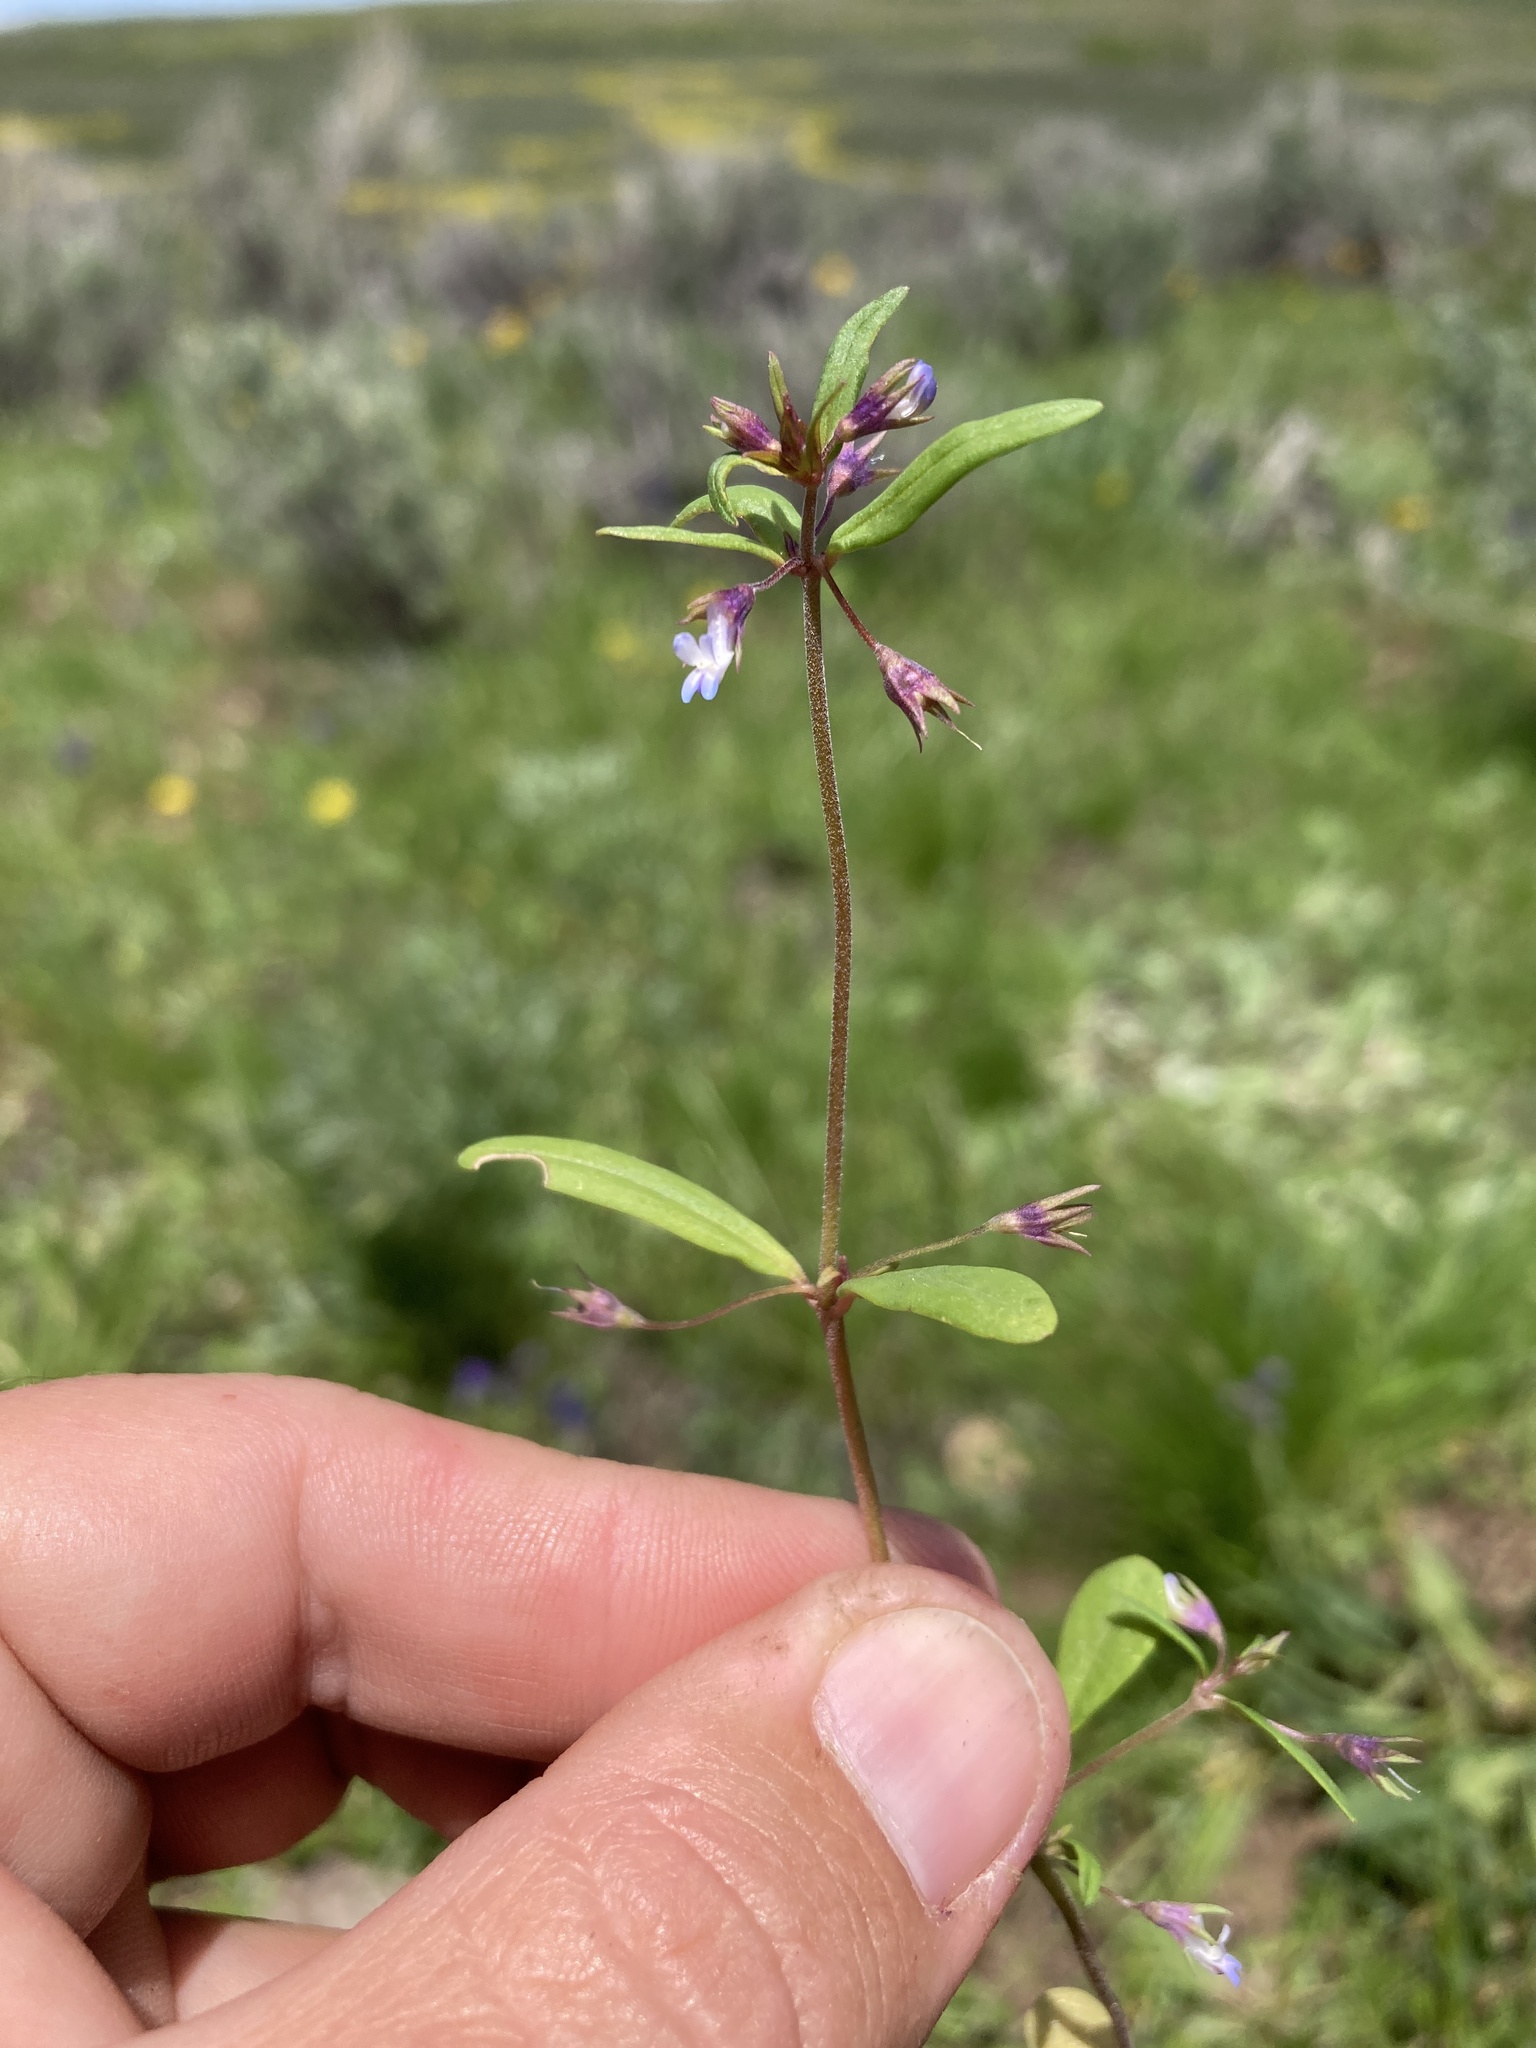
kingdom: Plantae
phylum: Tracheophyta
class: Magnoliopsida
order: Lamiales
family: Plantaginaceae
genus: Collinsia
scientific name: Collinsia parviflora
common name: Blue-lips
